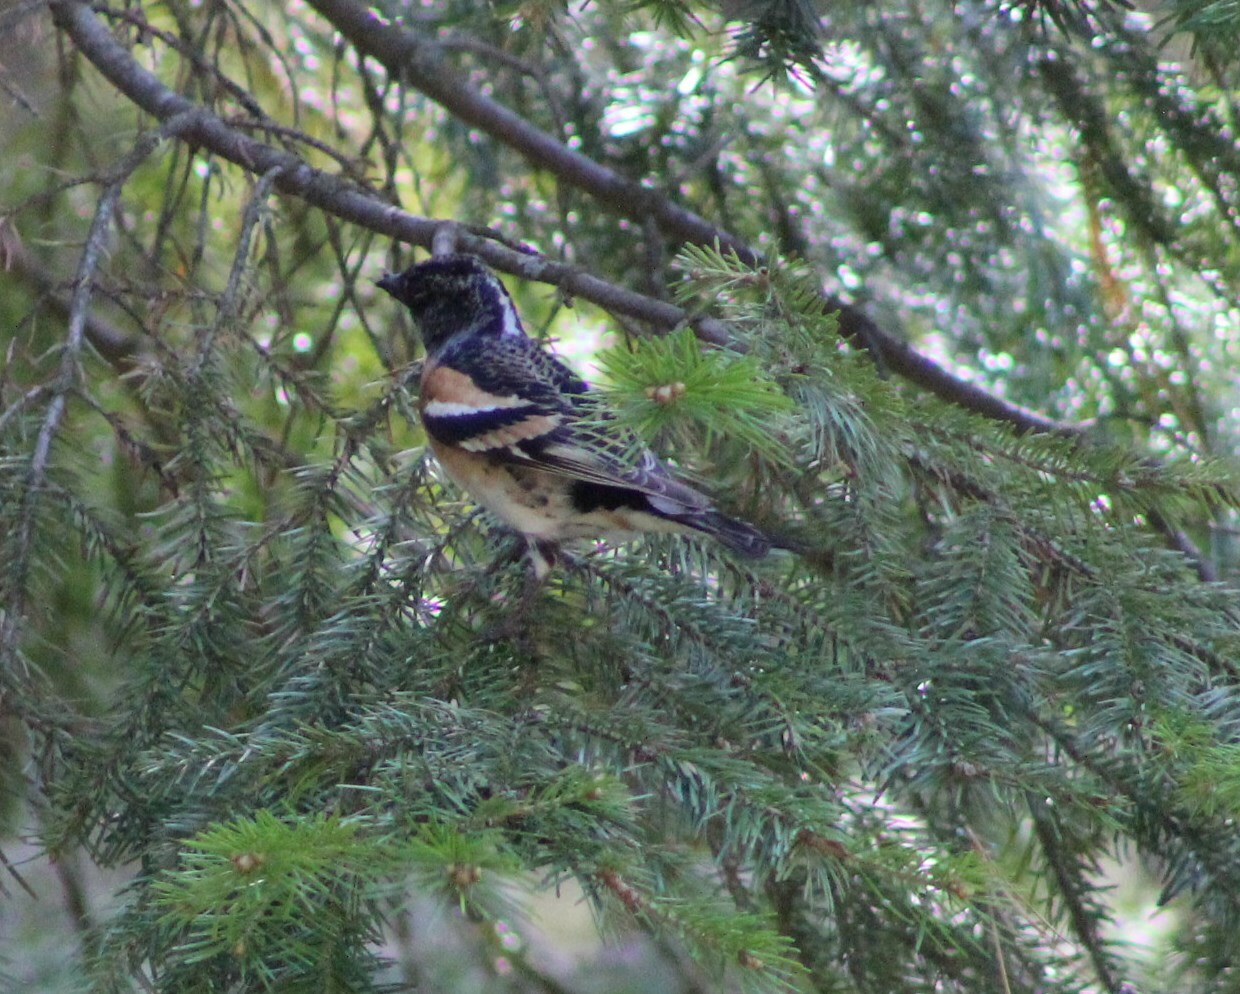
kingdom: Animalia
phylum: Chordata
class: Aves
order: Passeriformes
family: Fringillidae
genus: Fringilla
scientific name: Fringilla montifringilla
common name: Brambling
